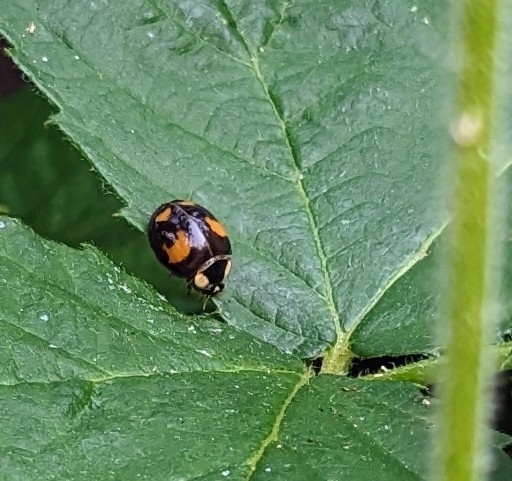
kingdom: Animalia
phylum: Arthropoda
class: Insecta
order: Coleoptera
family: Coccinellidae
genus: Harmonia
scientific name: Harmonia axyridis
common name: Harlequin ladybird
